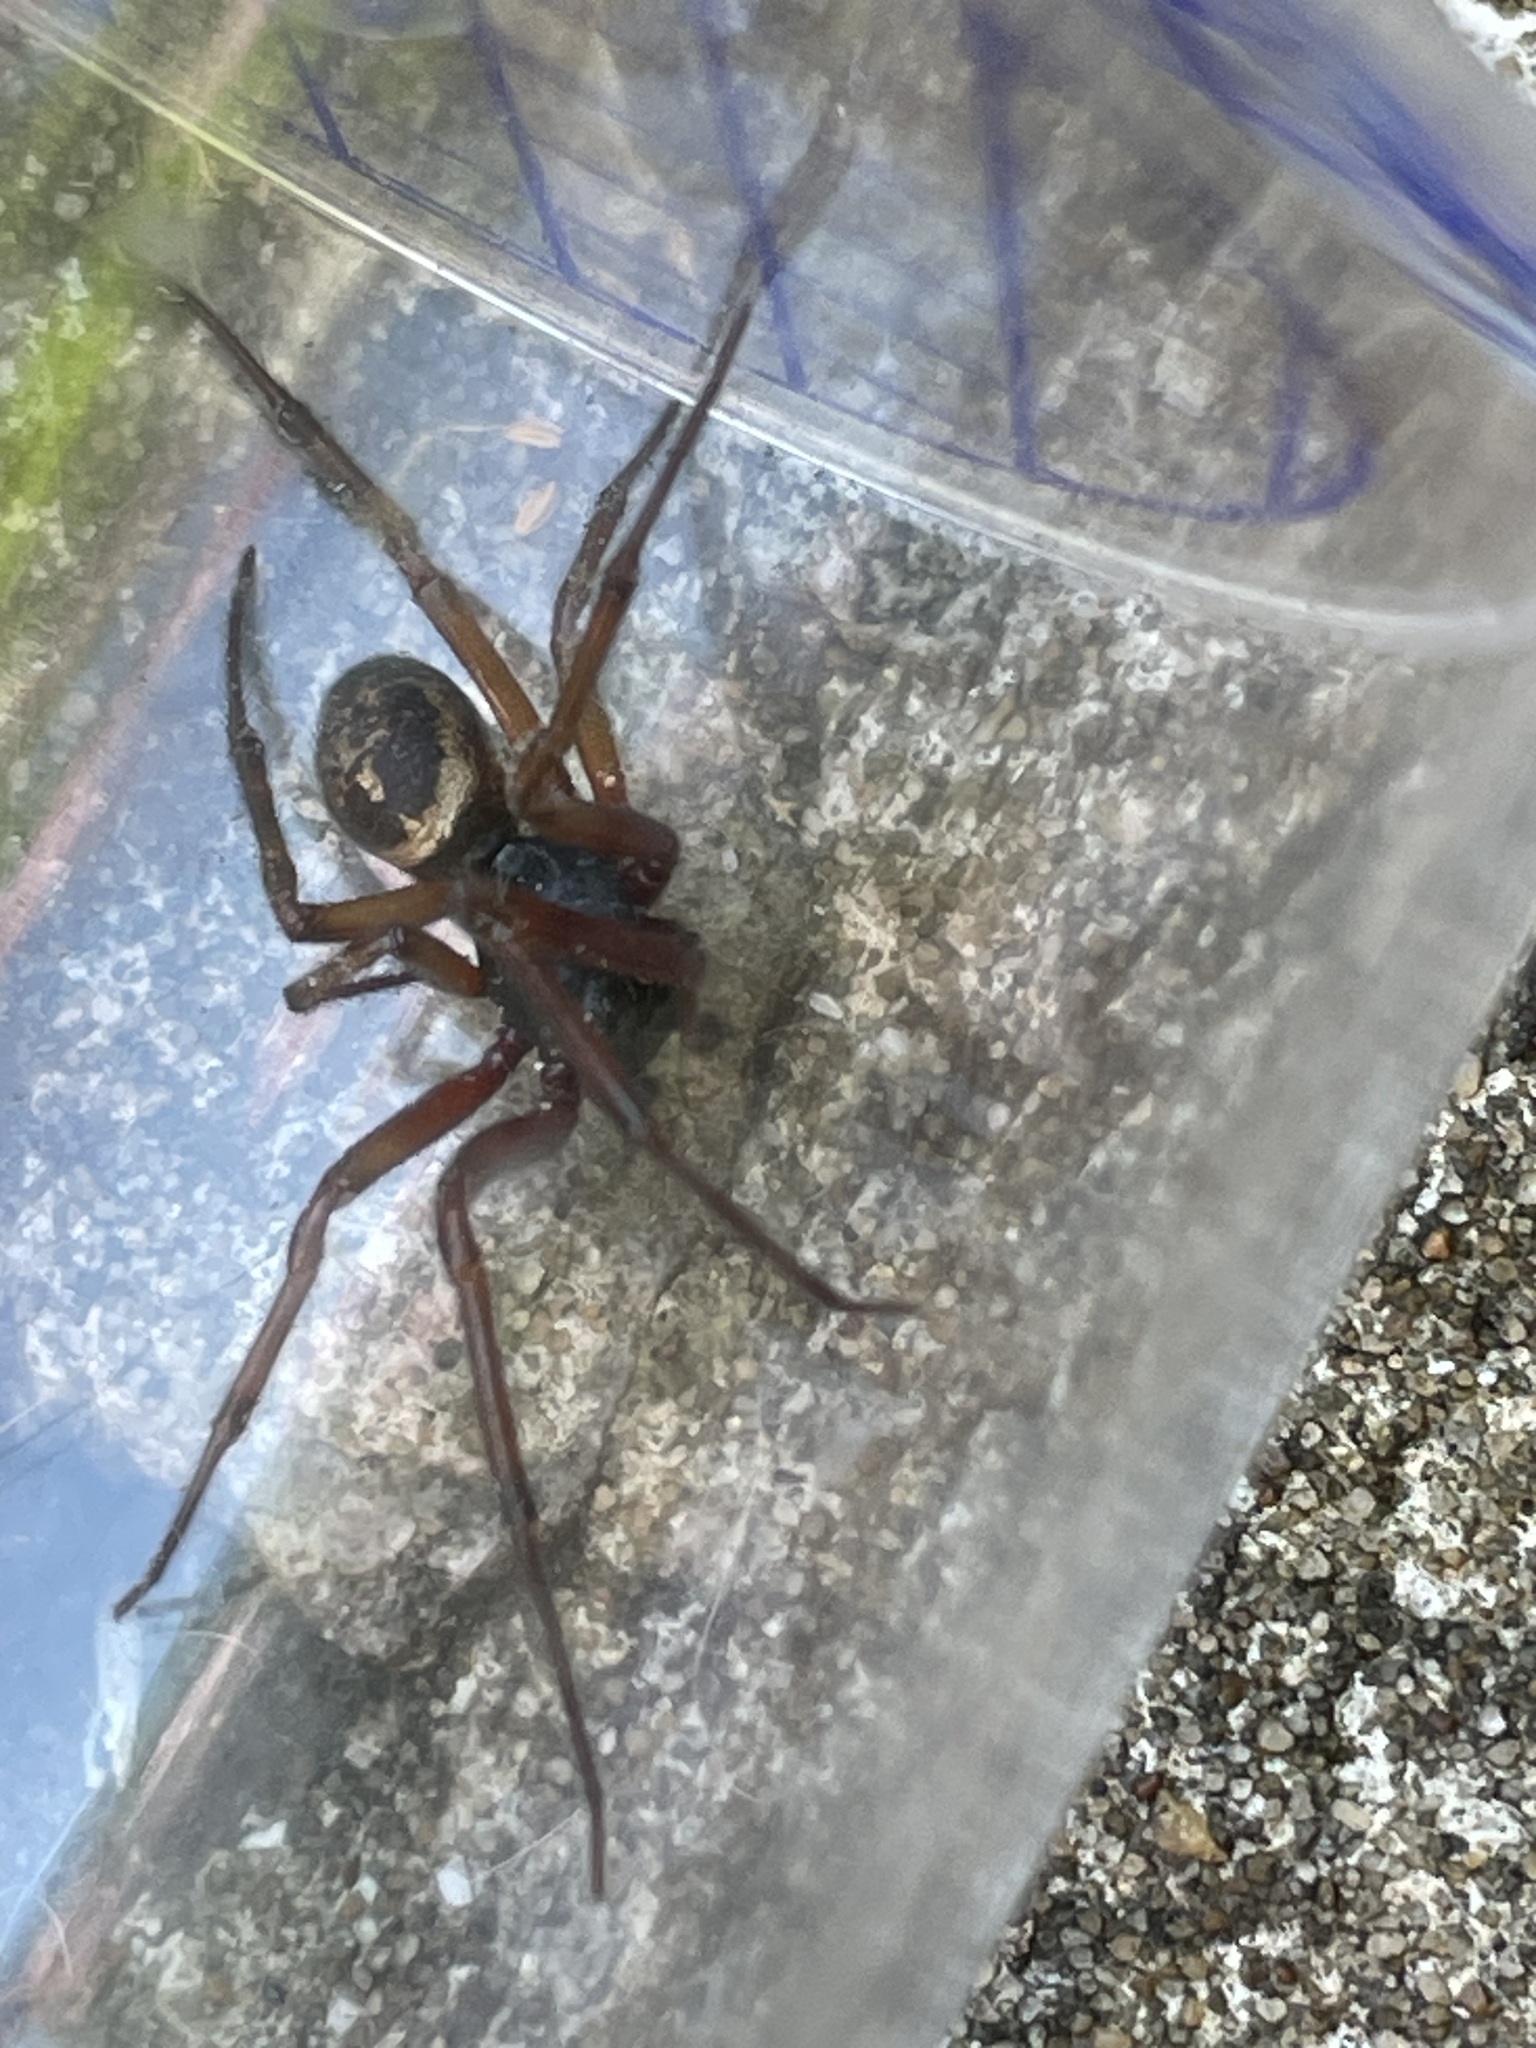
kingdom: Animalia
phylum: Arthropoda
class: Arachnida
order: Araneae
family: Theridiidae
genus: Steatoda
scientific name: Steatoda nobilis
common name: Cobweb weaver
